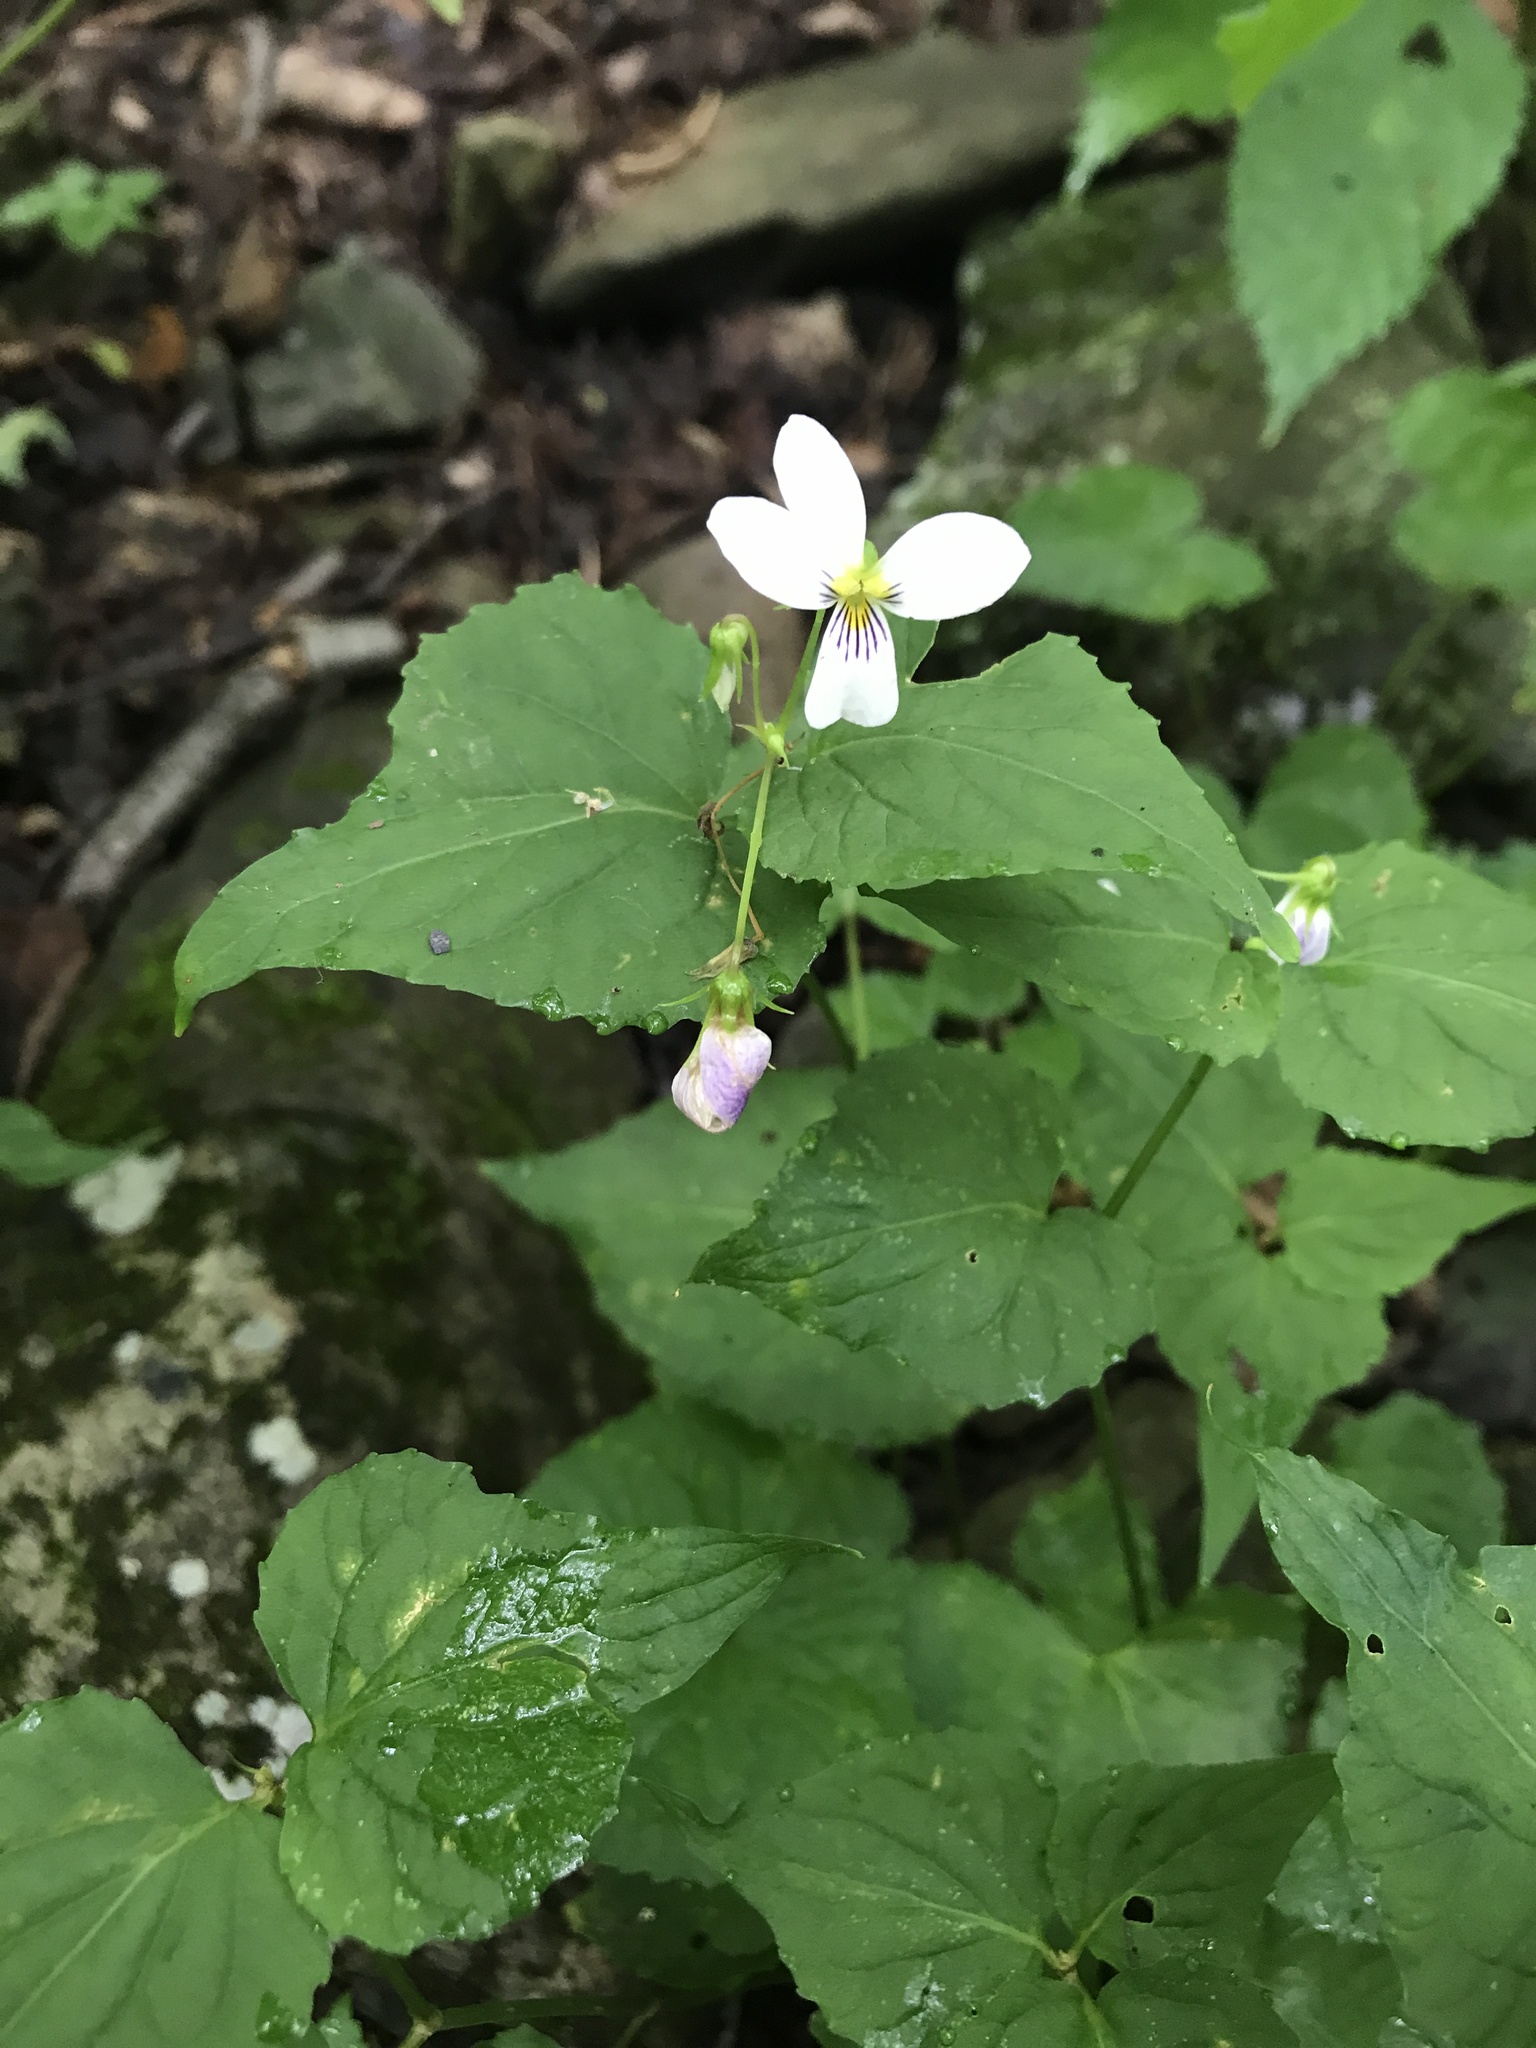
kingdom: Plantae
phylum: Tracheophyta
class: Magnoliopsida
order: Malpighiales
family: Violaceae
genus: Viola
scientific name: Viola canadensis
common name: Canada violet
